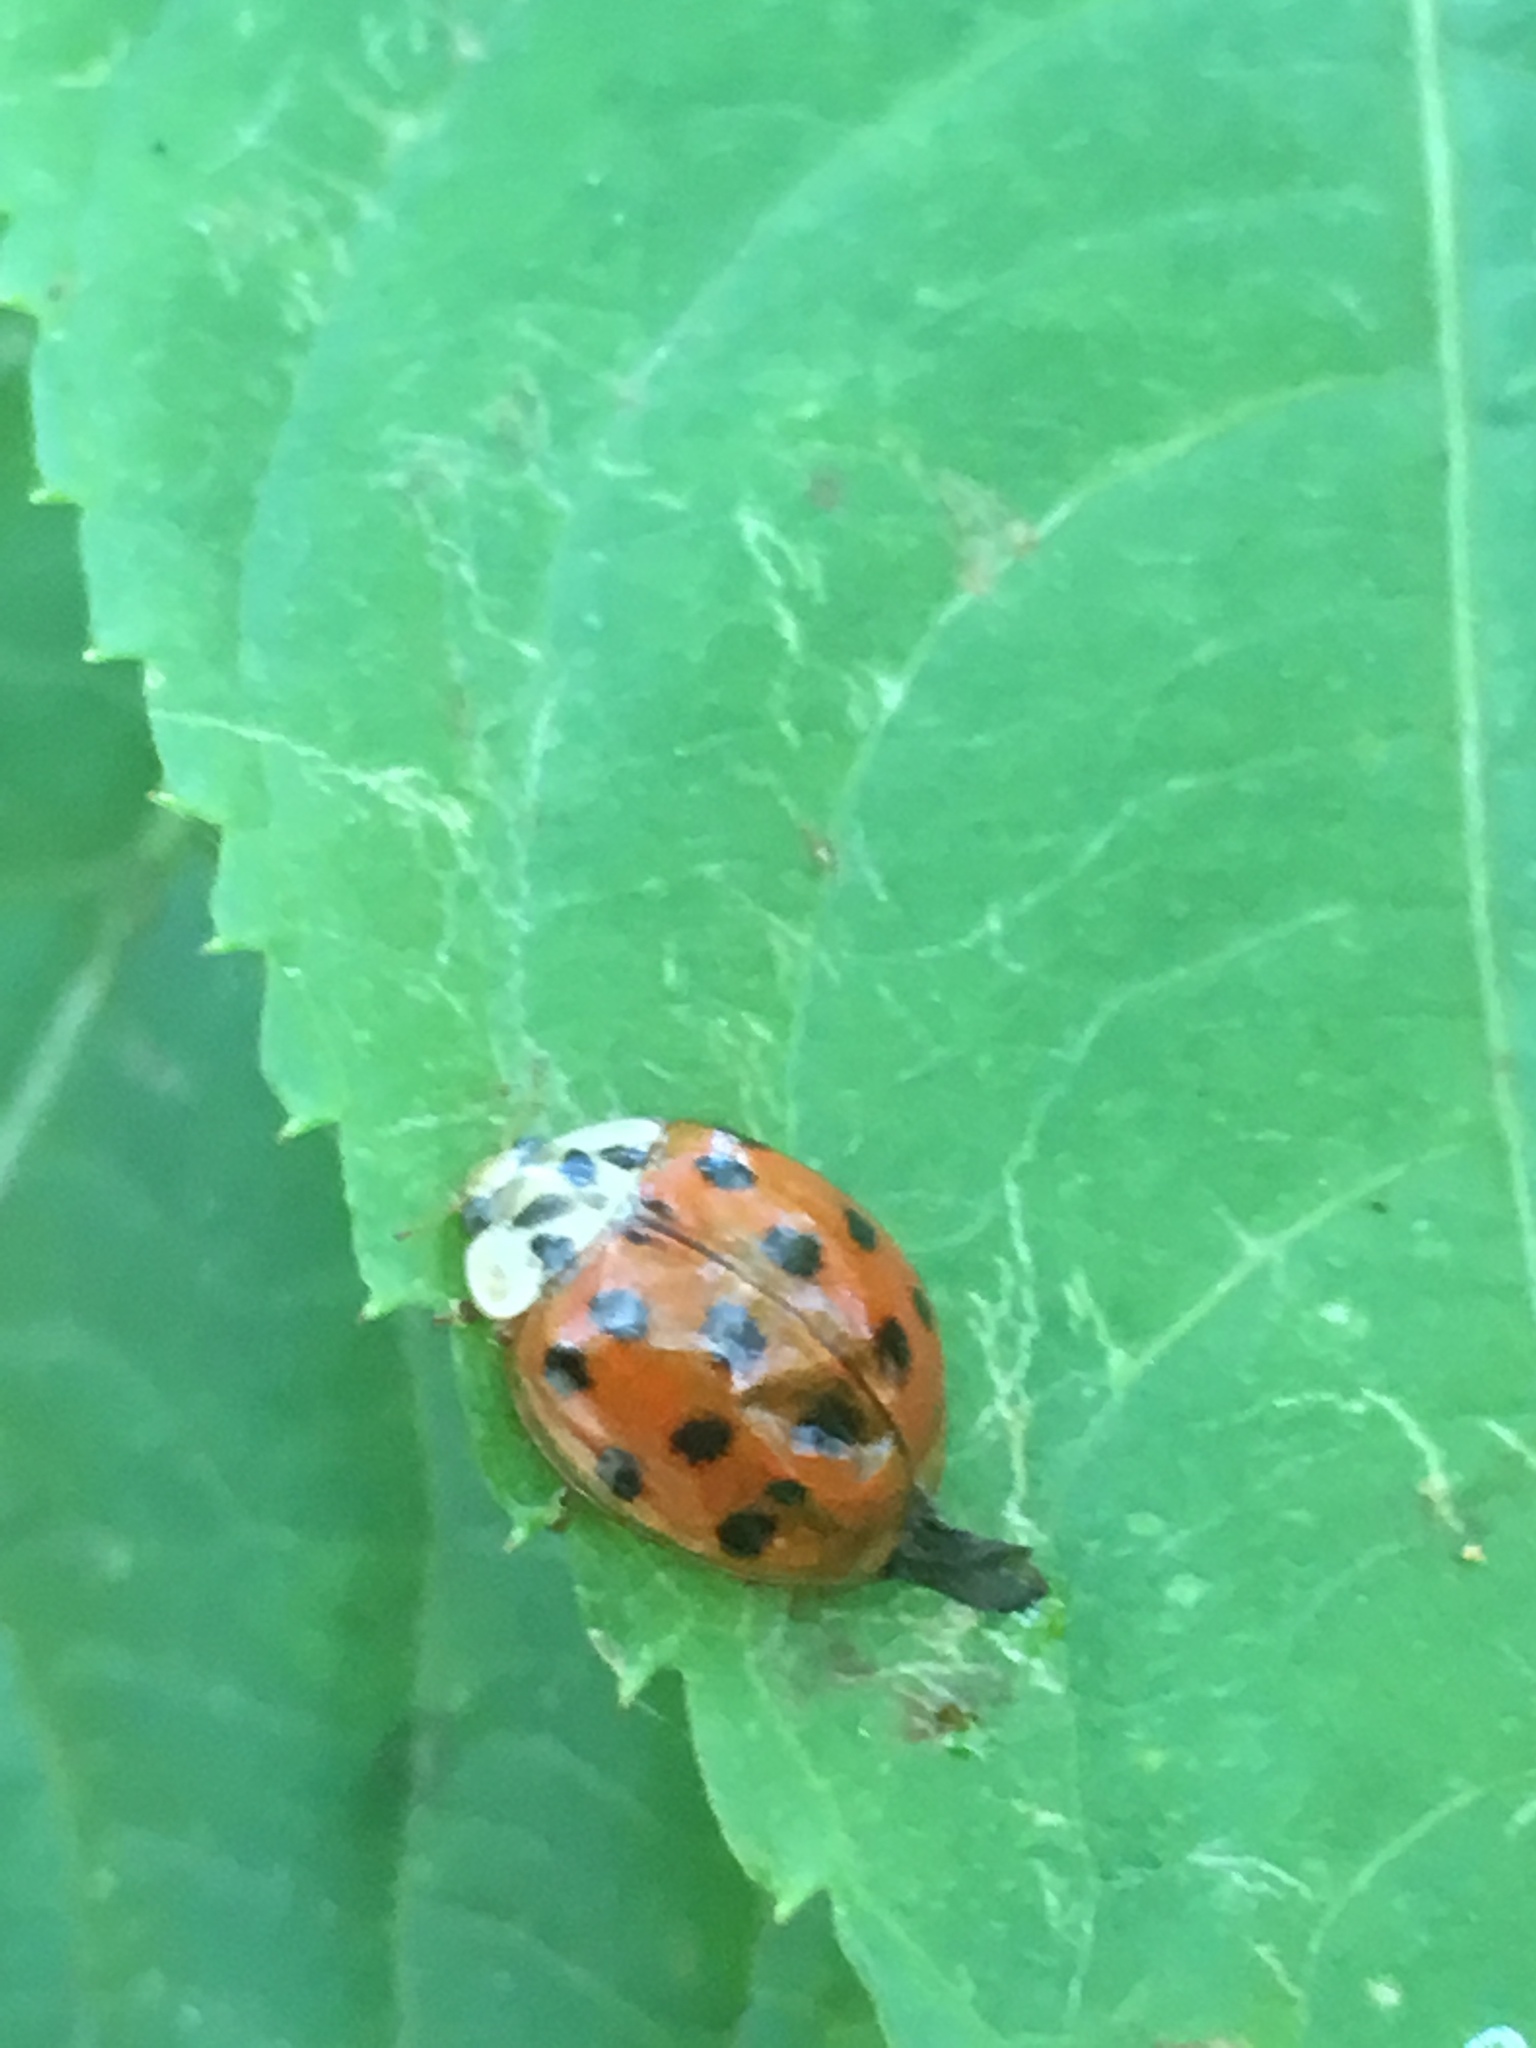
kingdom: Animalia
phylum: Arthropoda
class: Insecta
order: Coleoptera
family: Coccinellidae
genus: Harmonia
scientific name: Harmonia axyridis
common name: Harlequin ladybird
